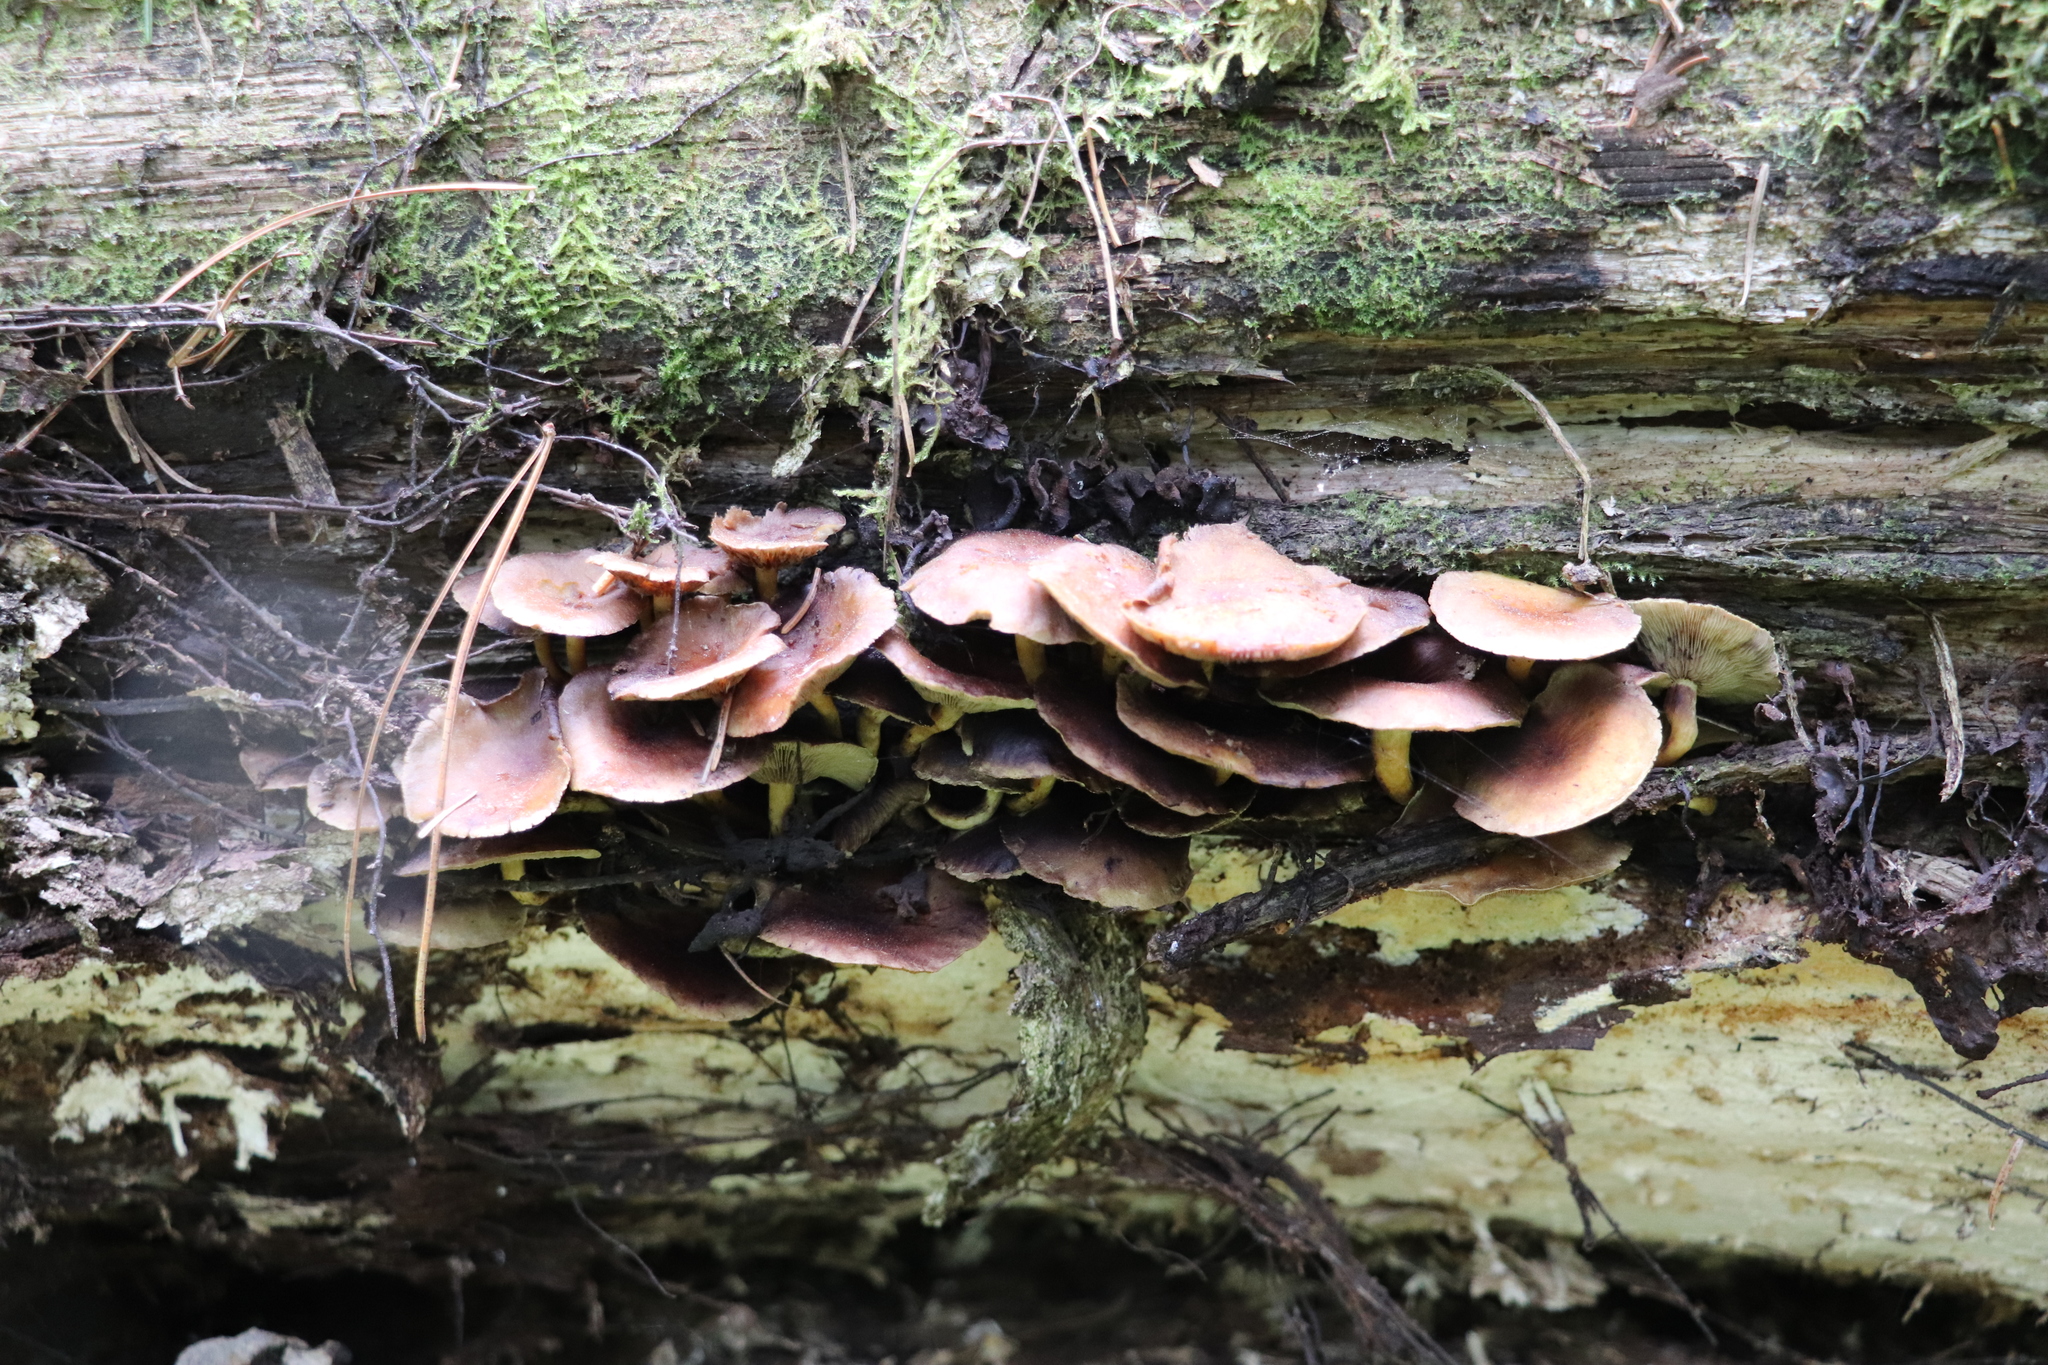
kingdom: Fungi
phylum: Basidiomycota
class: Agaricomycetes
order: Agaricales
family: Strophariaceae
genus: Hypholoma
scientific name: Hypholoma fasciculare
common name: Sulphur tuft
